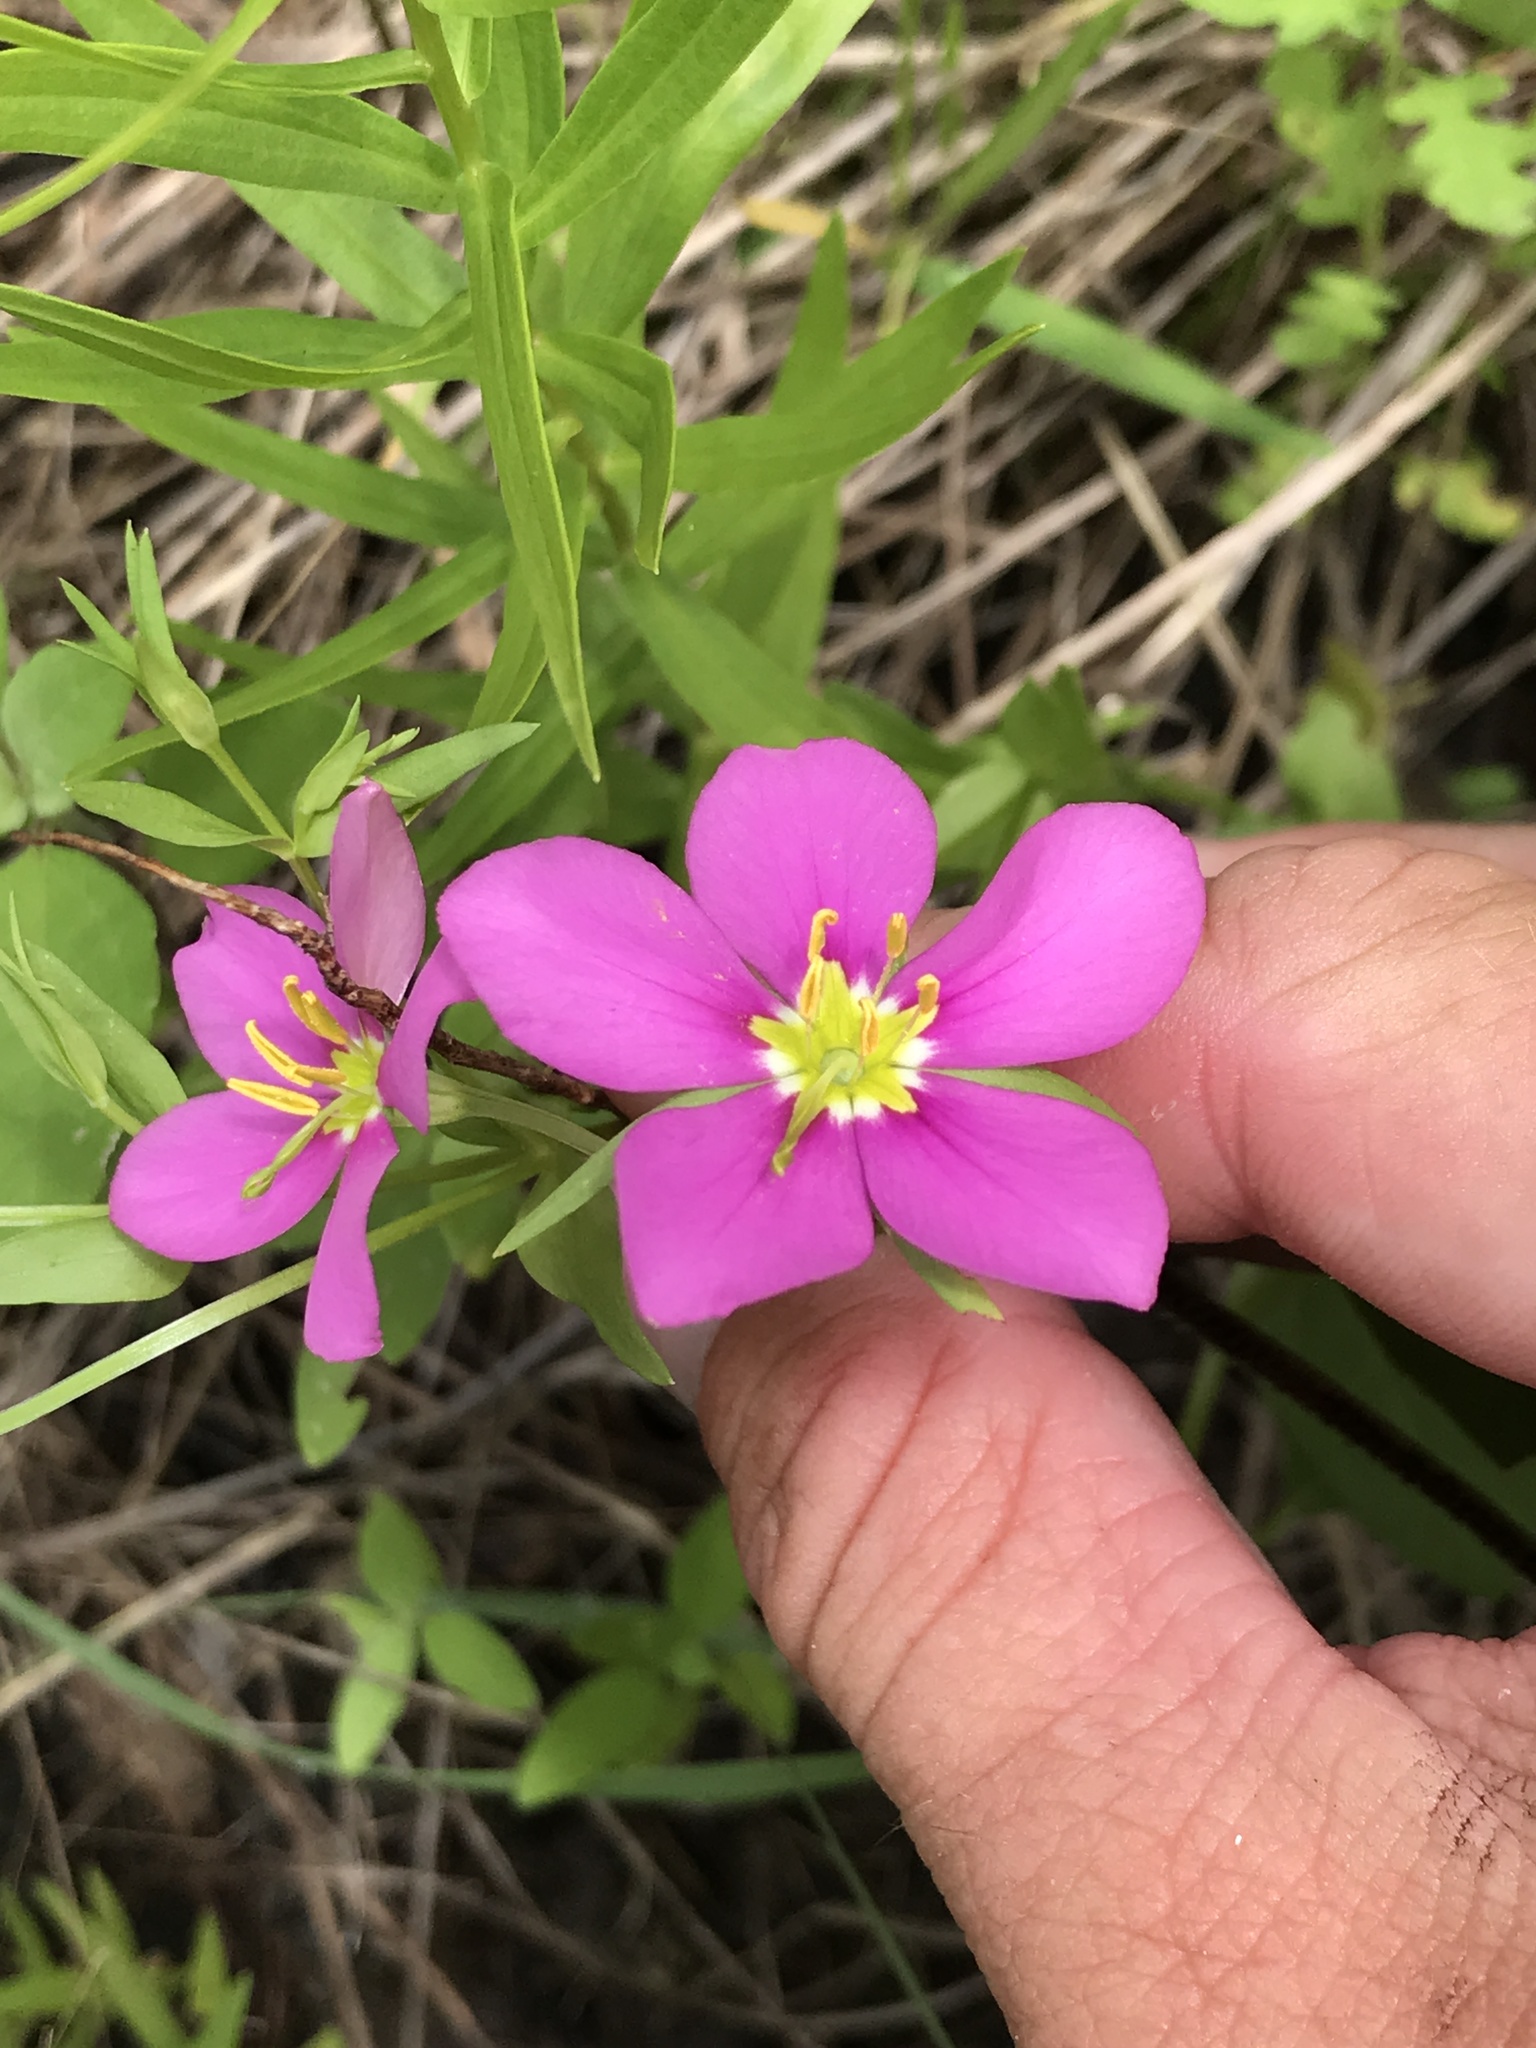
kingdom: Plantae
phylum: Tracheophyta
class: Magnoliopsida
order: Gentianales
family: Gentianaceae
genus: Sabatia
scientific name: Sabatia campestris
